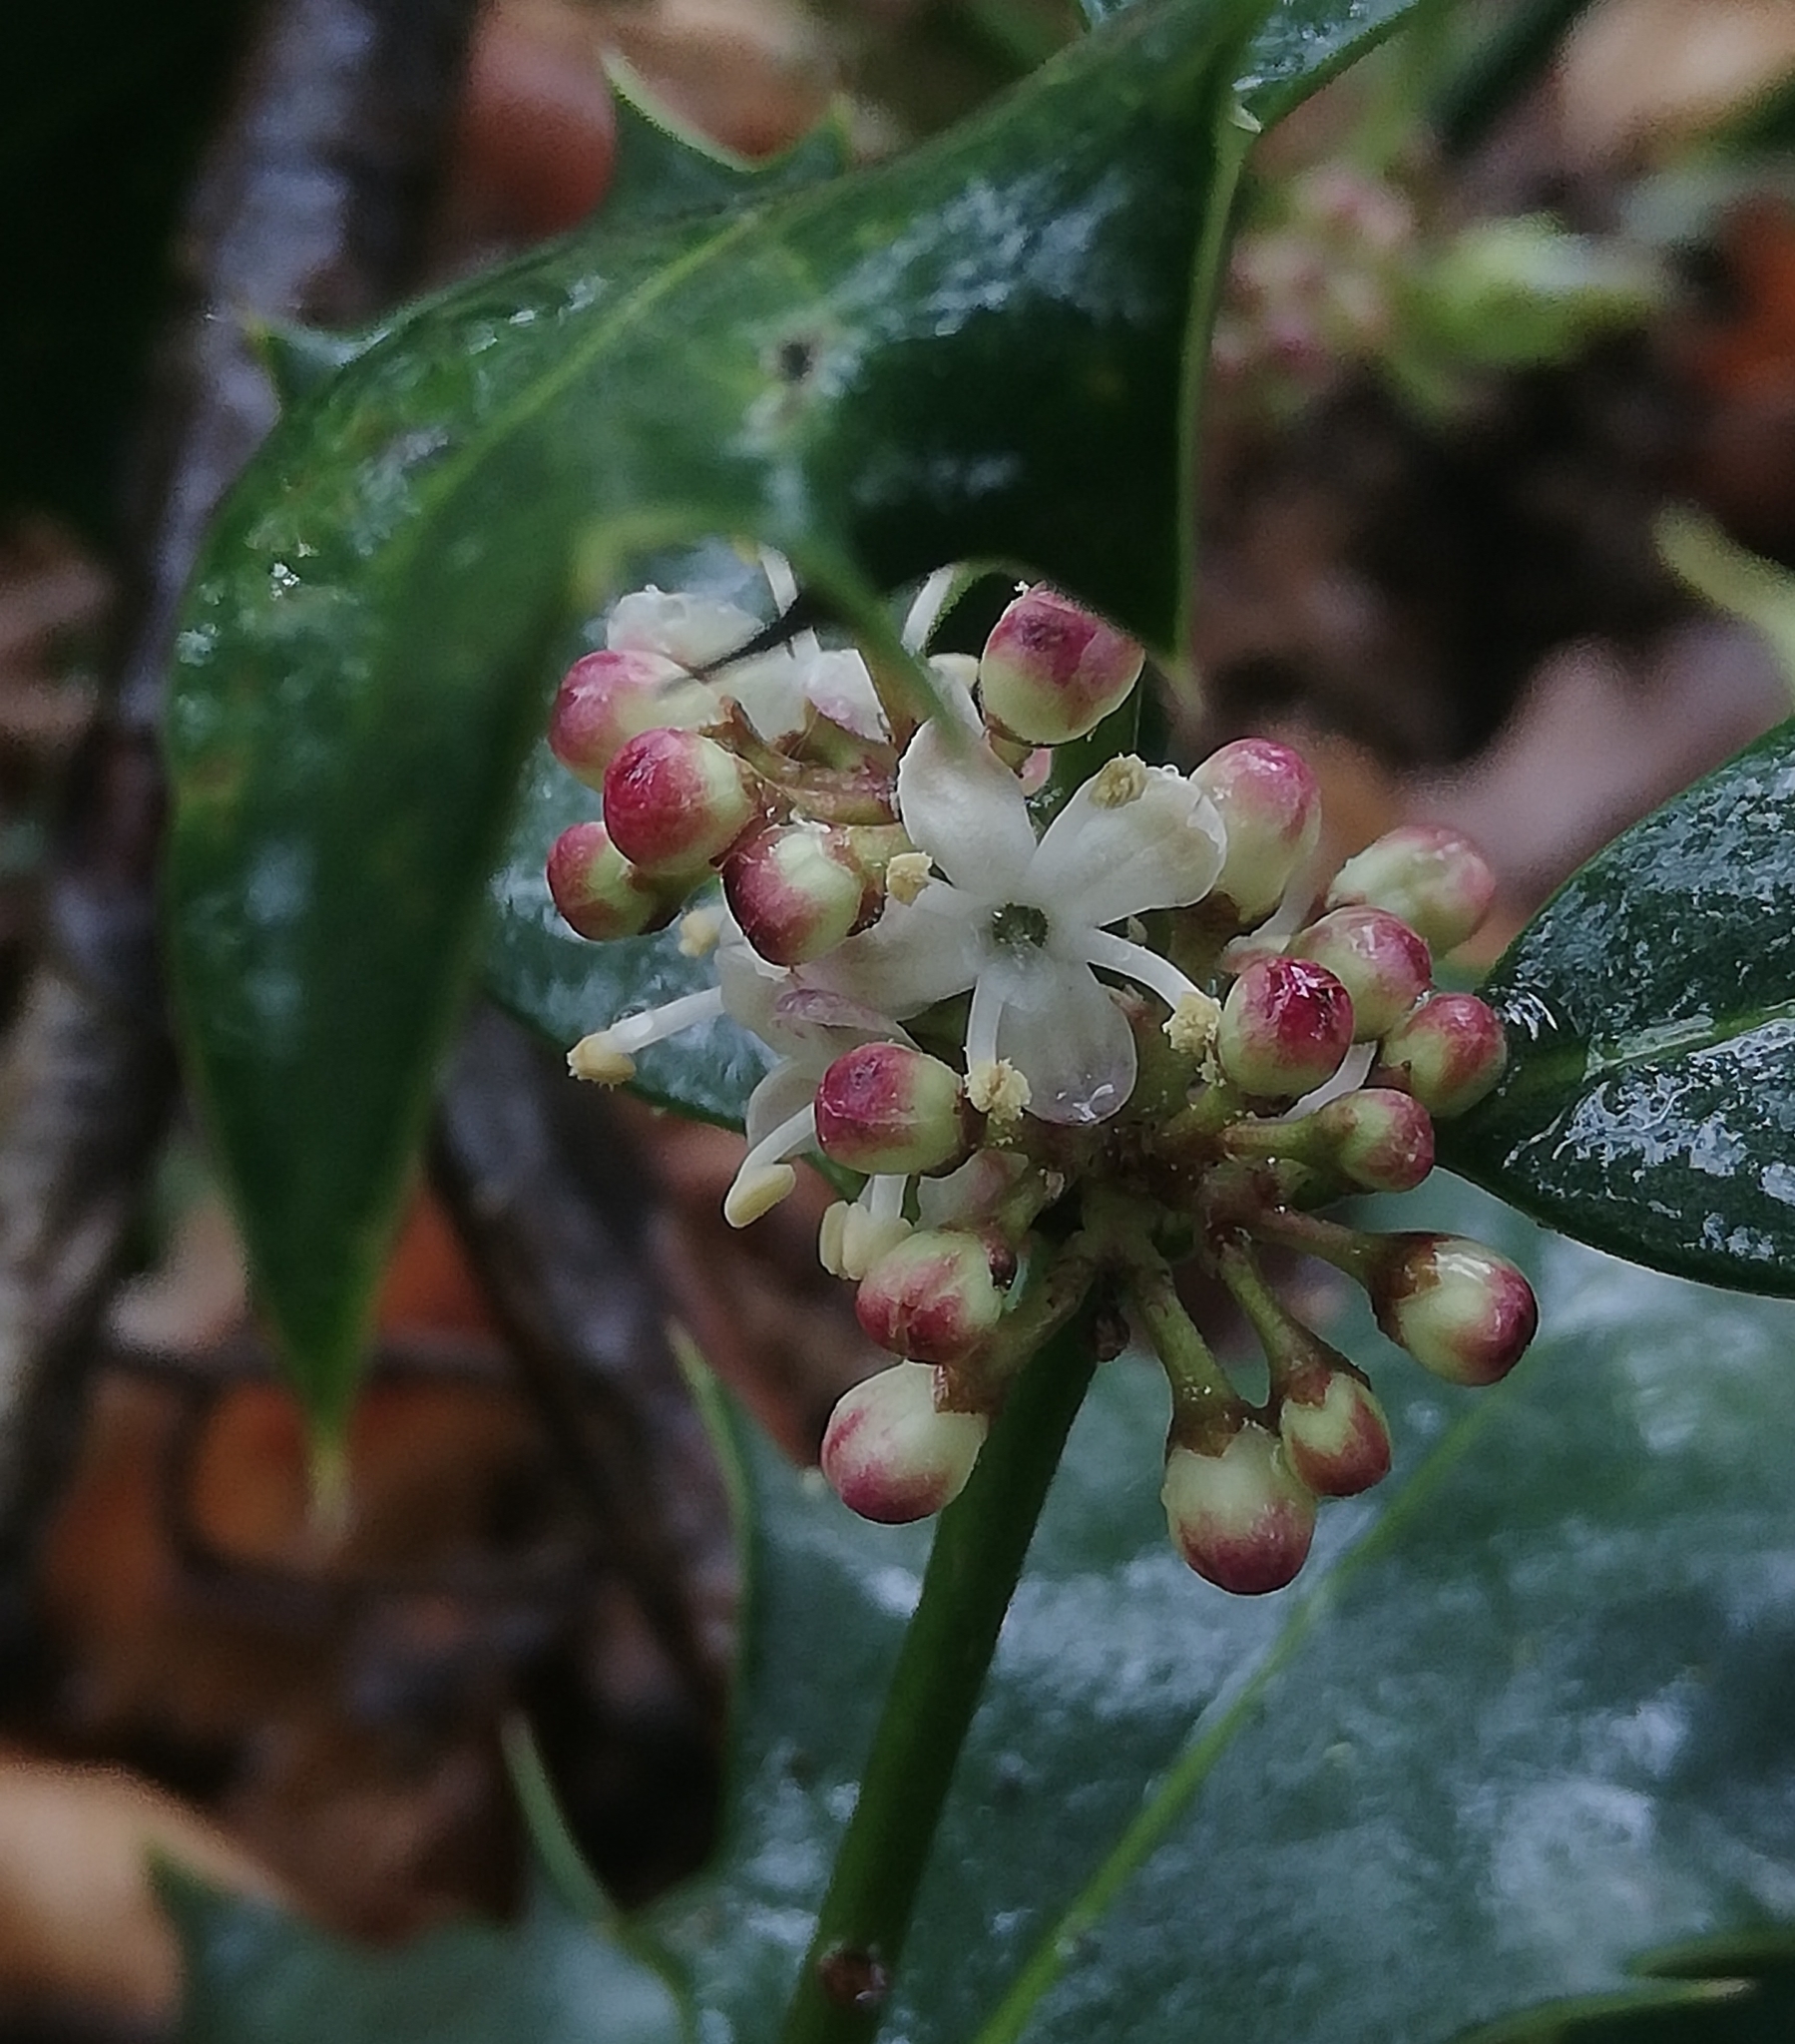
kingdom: Plantae
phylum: Tracheophyta
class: Magnoliopsida
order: Aquifoliales
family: Aquifoliaceae
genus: Ilex
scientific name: Ilex aquifolium
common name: English holly
